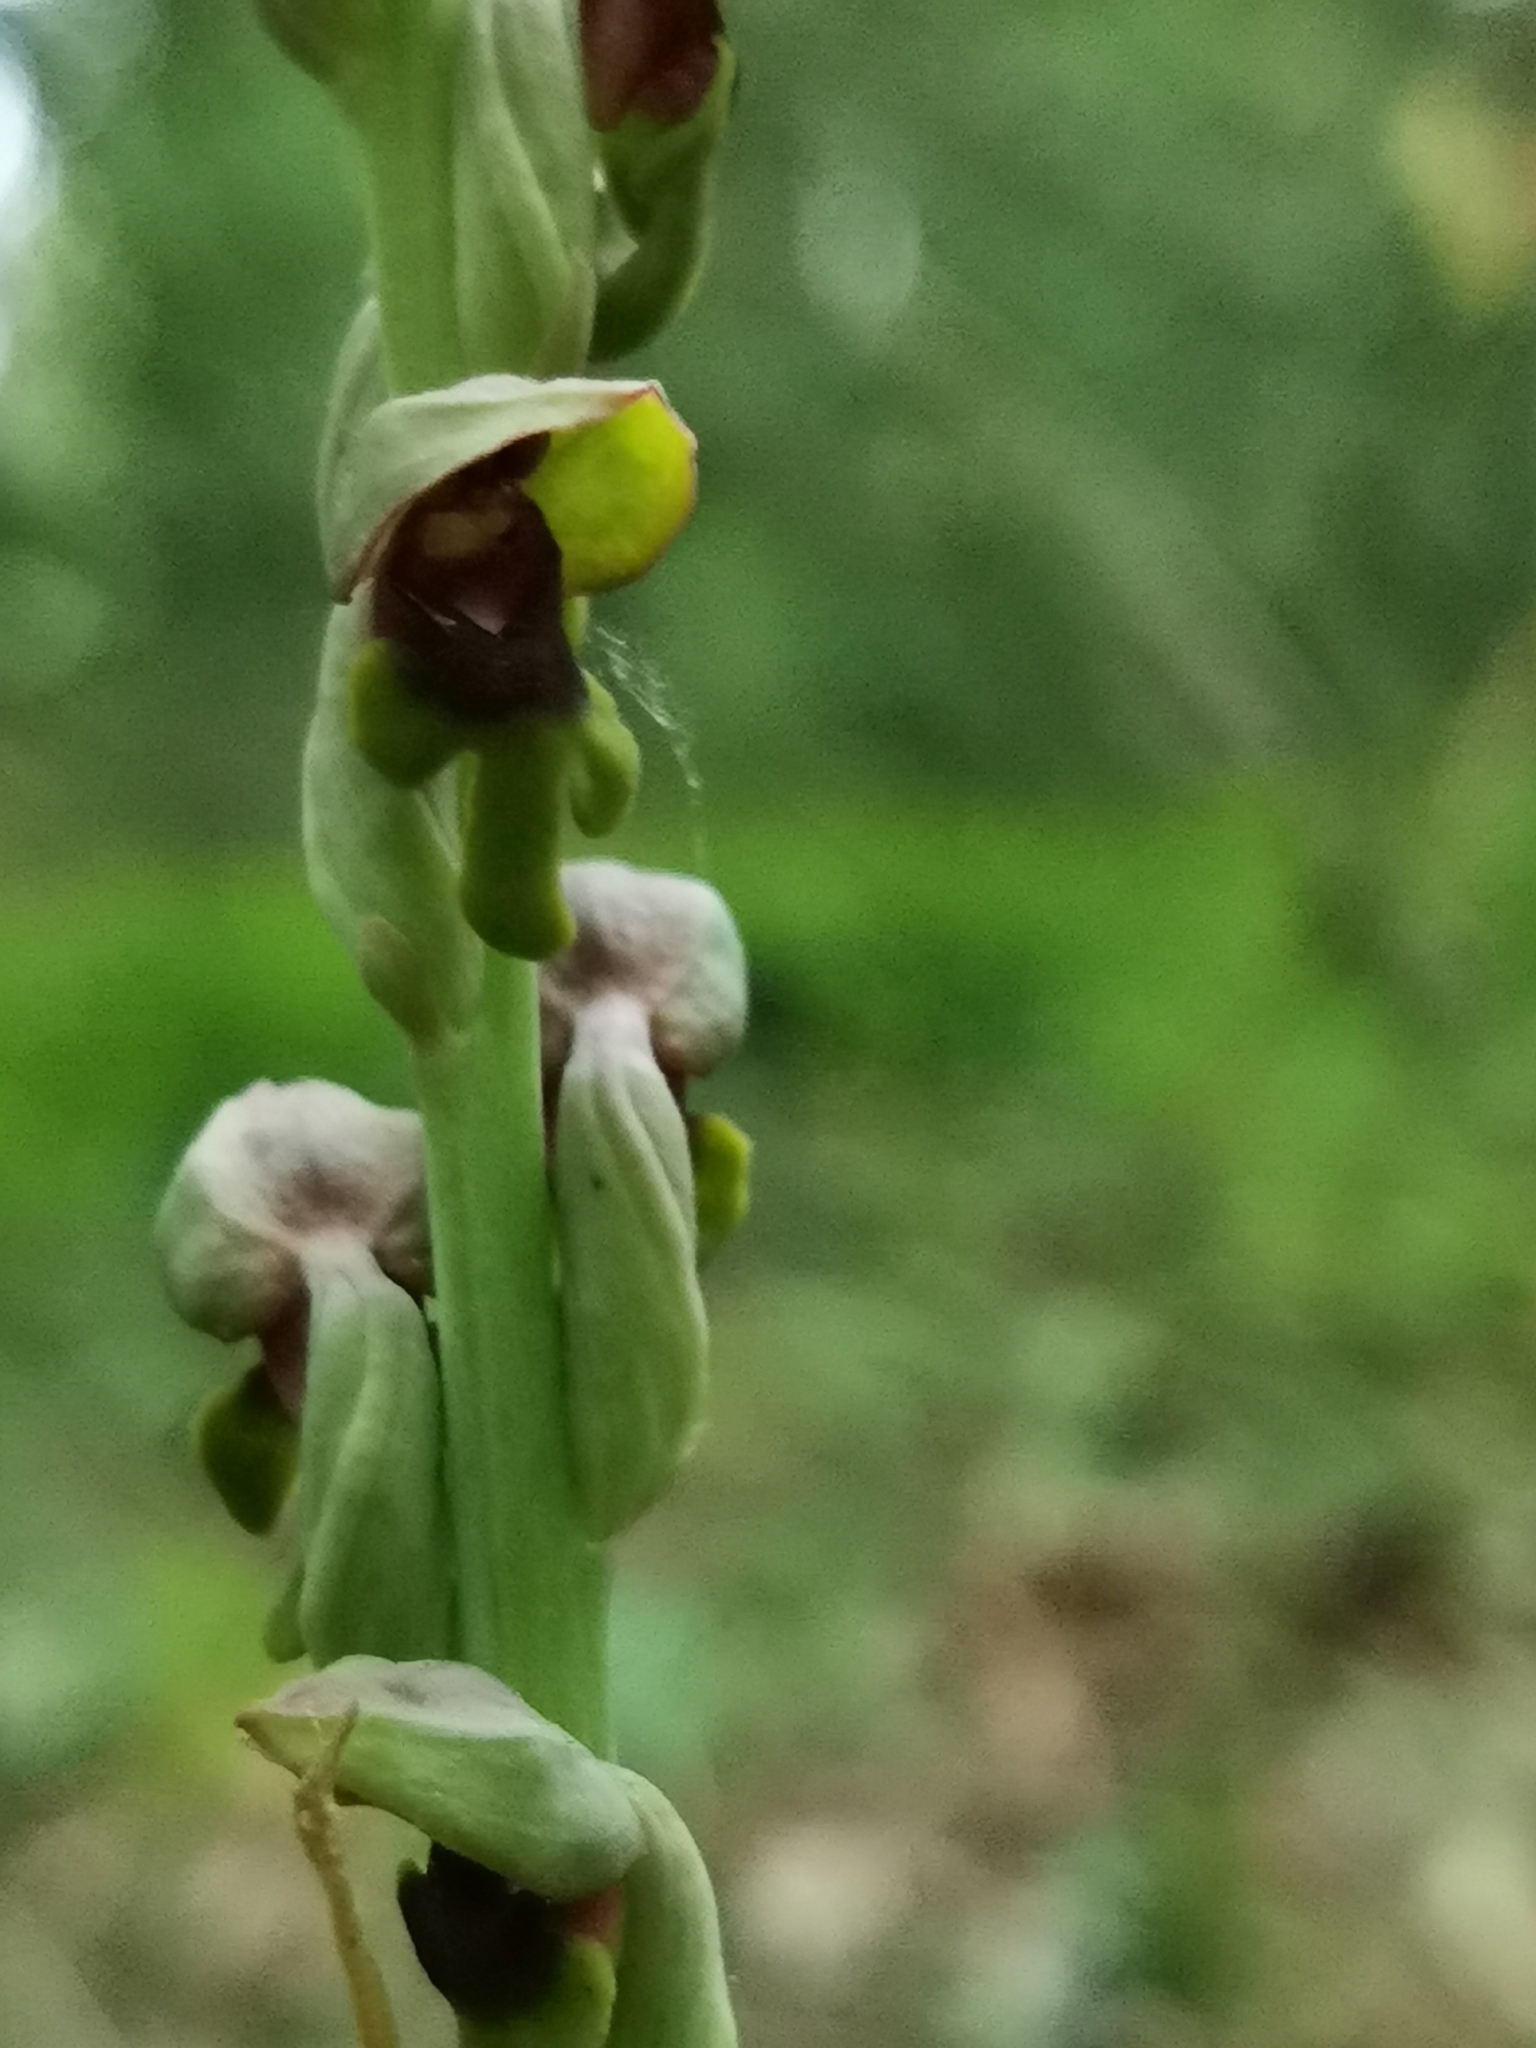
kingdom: Plantae
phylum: Tracheophyta
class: Liliopsida
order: Asparagales
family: Orchidaceae
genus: Steveniella
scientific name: Steveniella satyrioides
